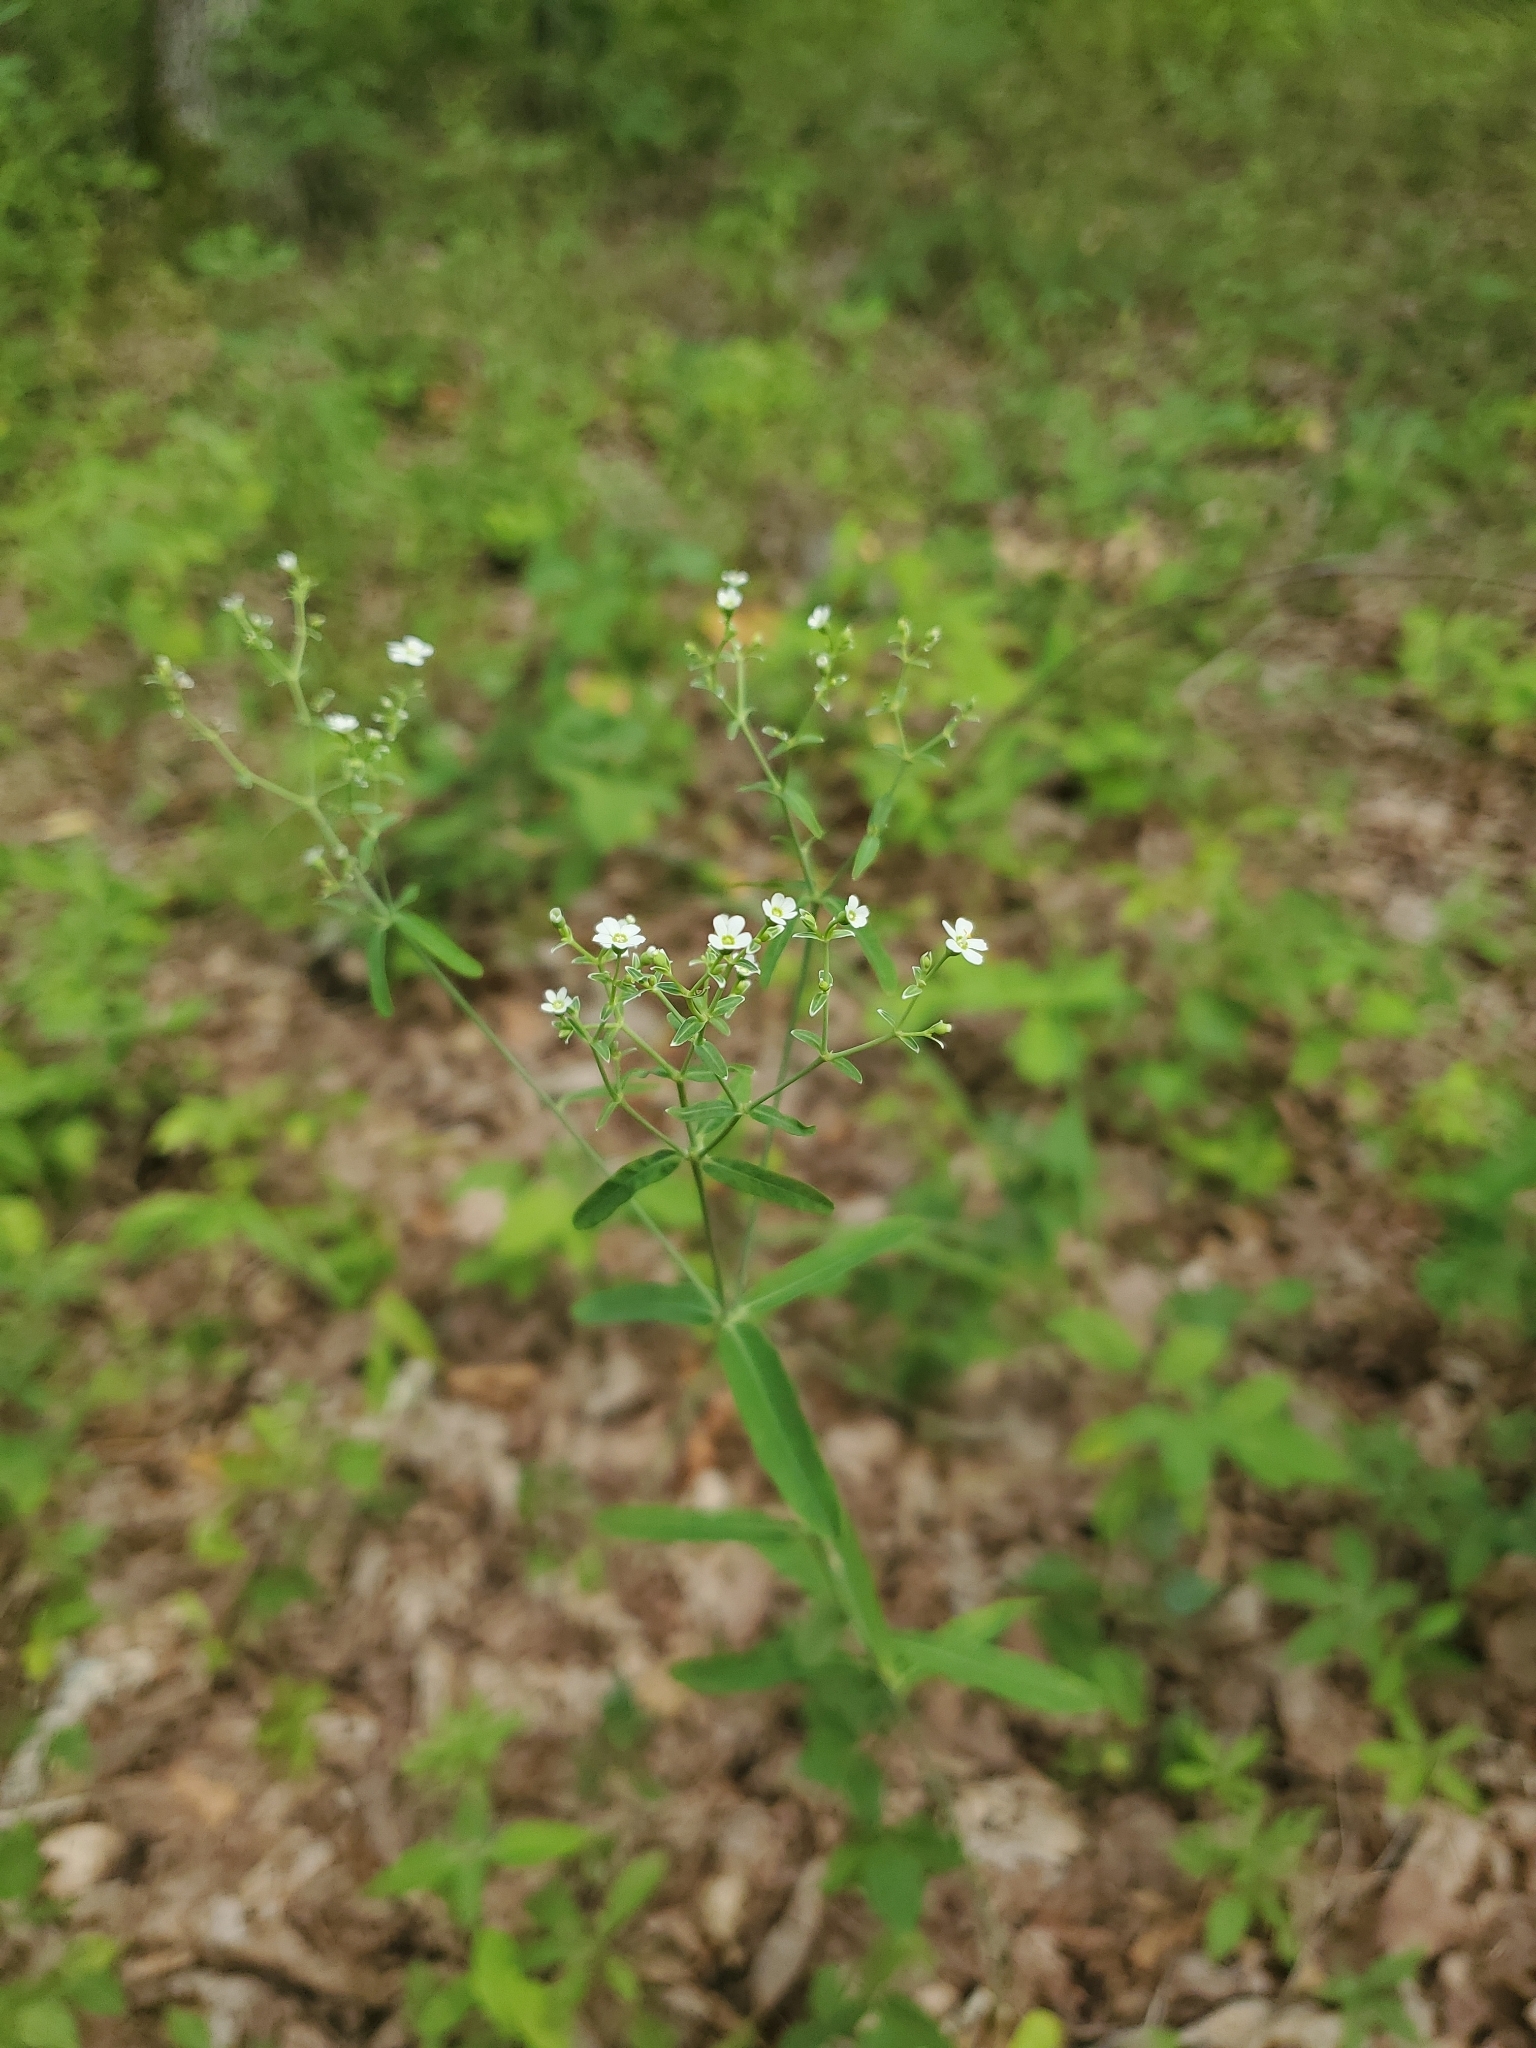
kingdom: Plantae
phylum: Tracheophyta
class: Magnoliopsida
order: Malpighiales
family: Euphorbiaceae
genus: Euphorbia
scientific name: Euphorbia corollata
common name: Flowering spurge
